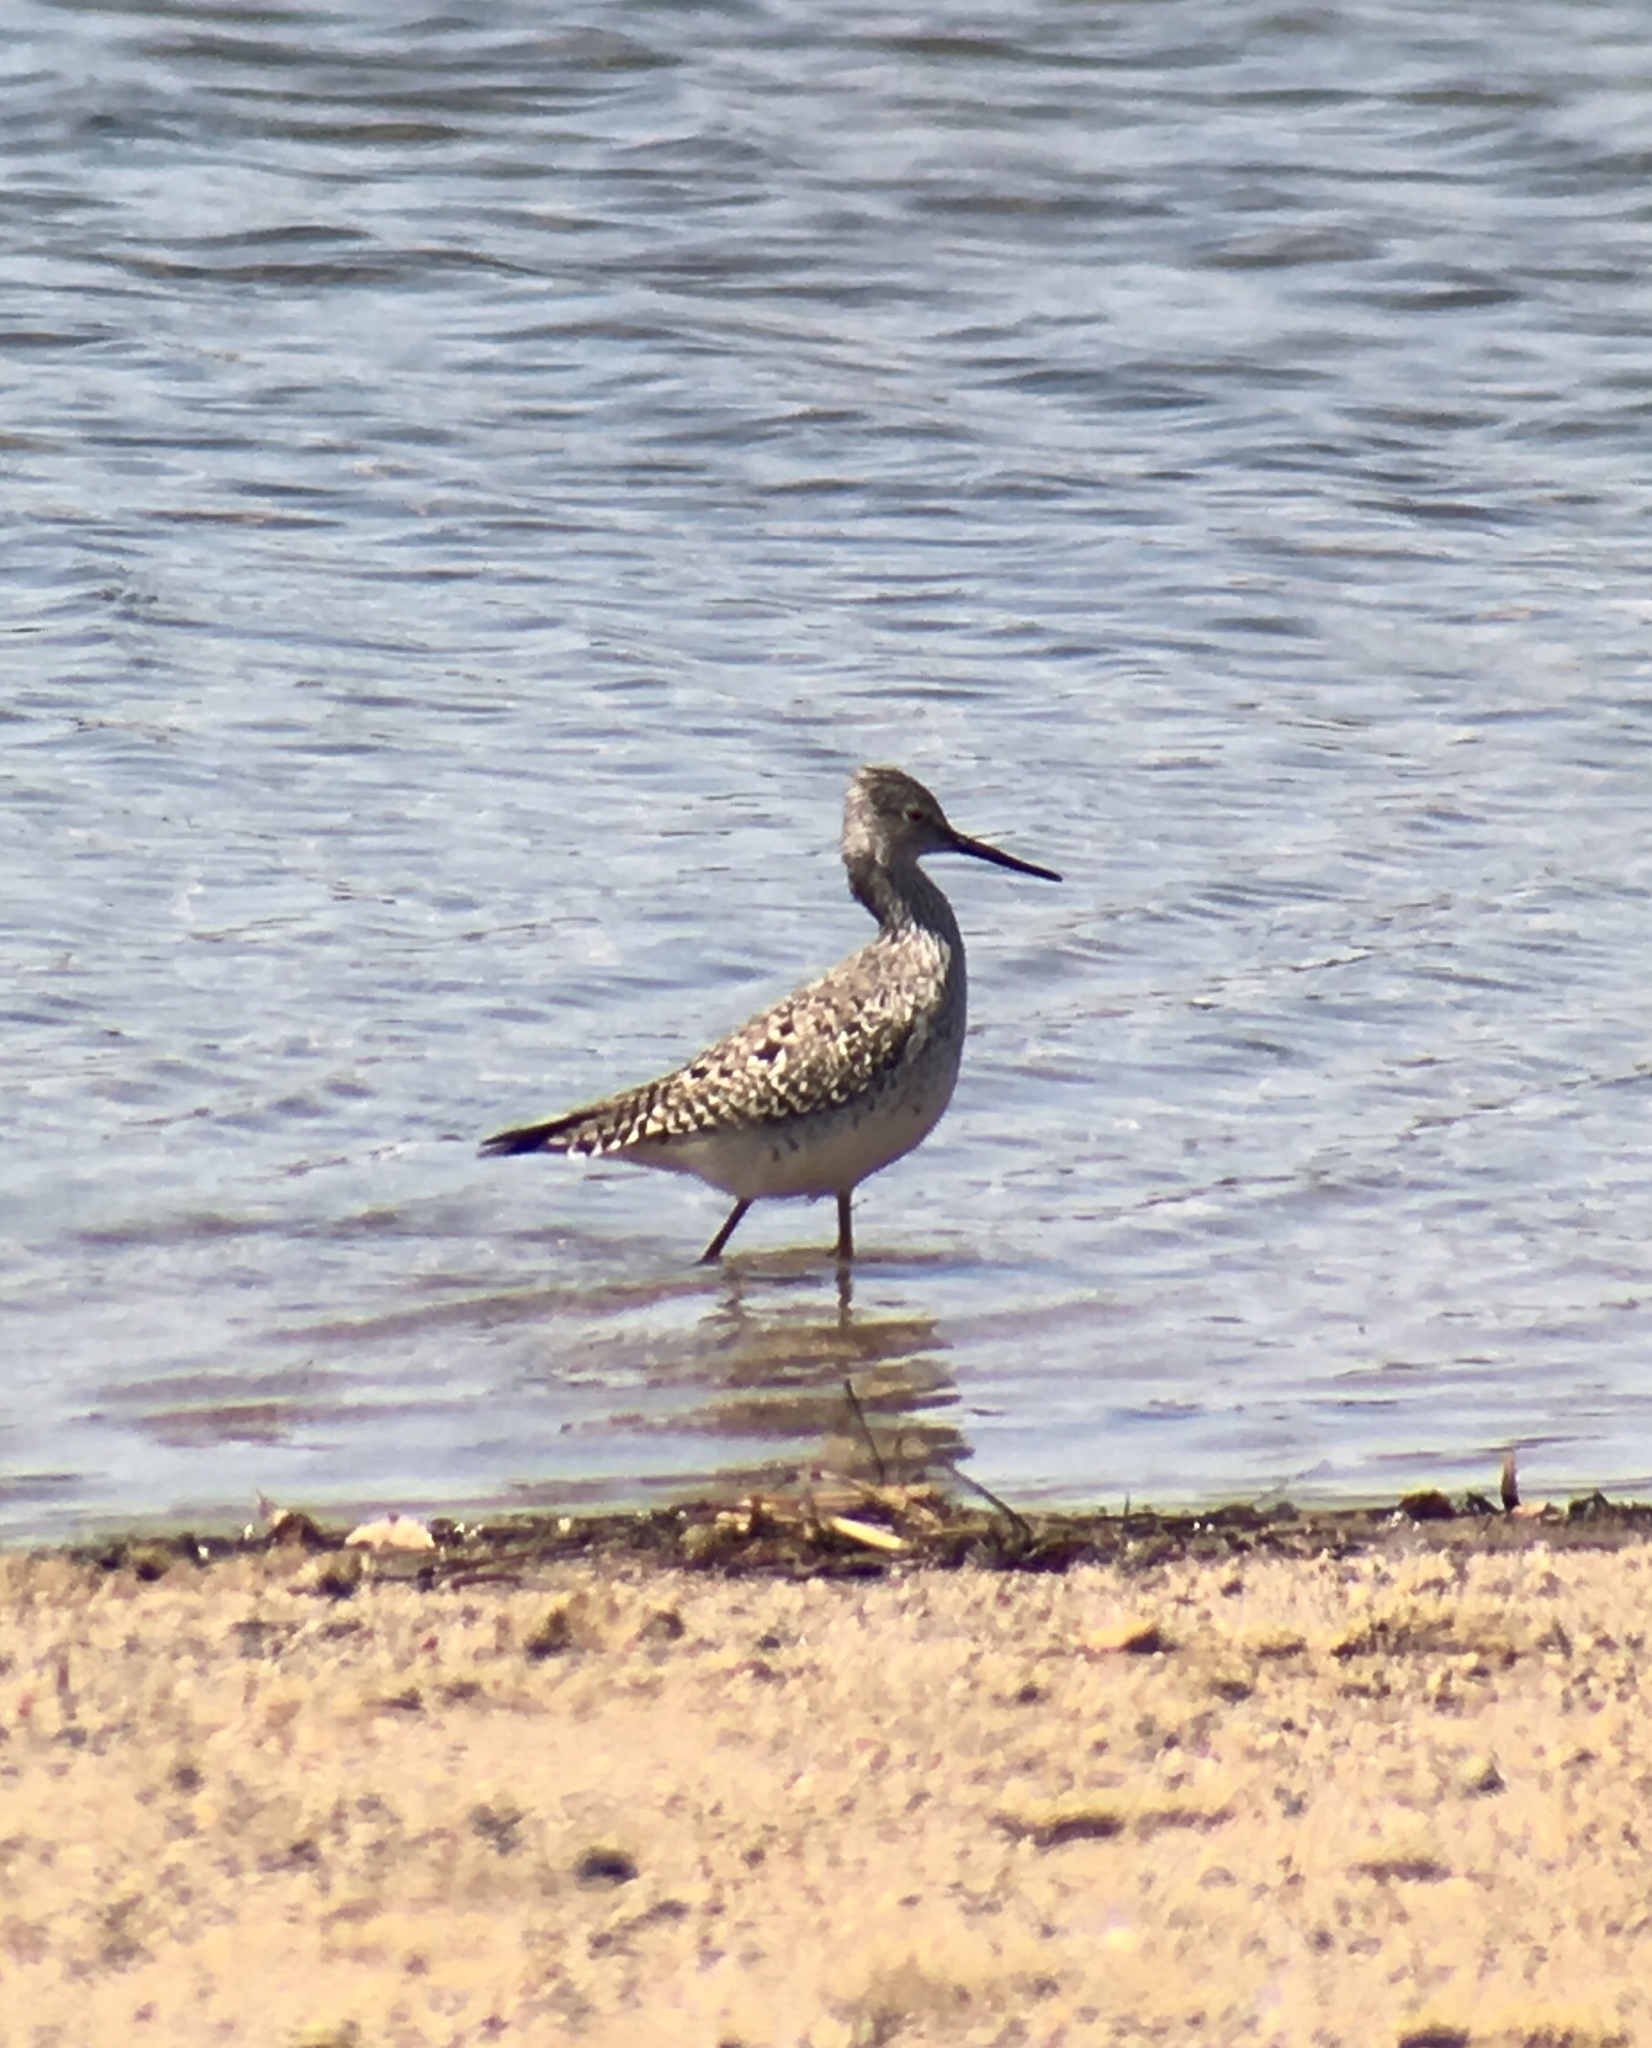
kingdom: Animalia
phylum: Chordata
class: Aves
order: Charadriiformes
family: Scolopacidae
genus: Tringa
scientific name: Tringa melanoleuca
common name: Greater yellowlegs
